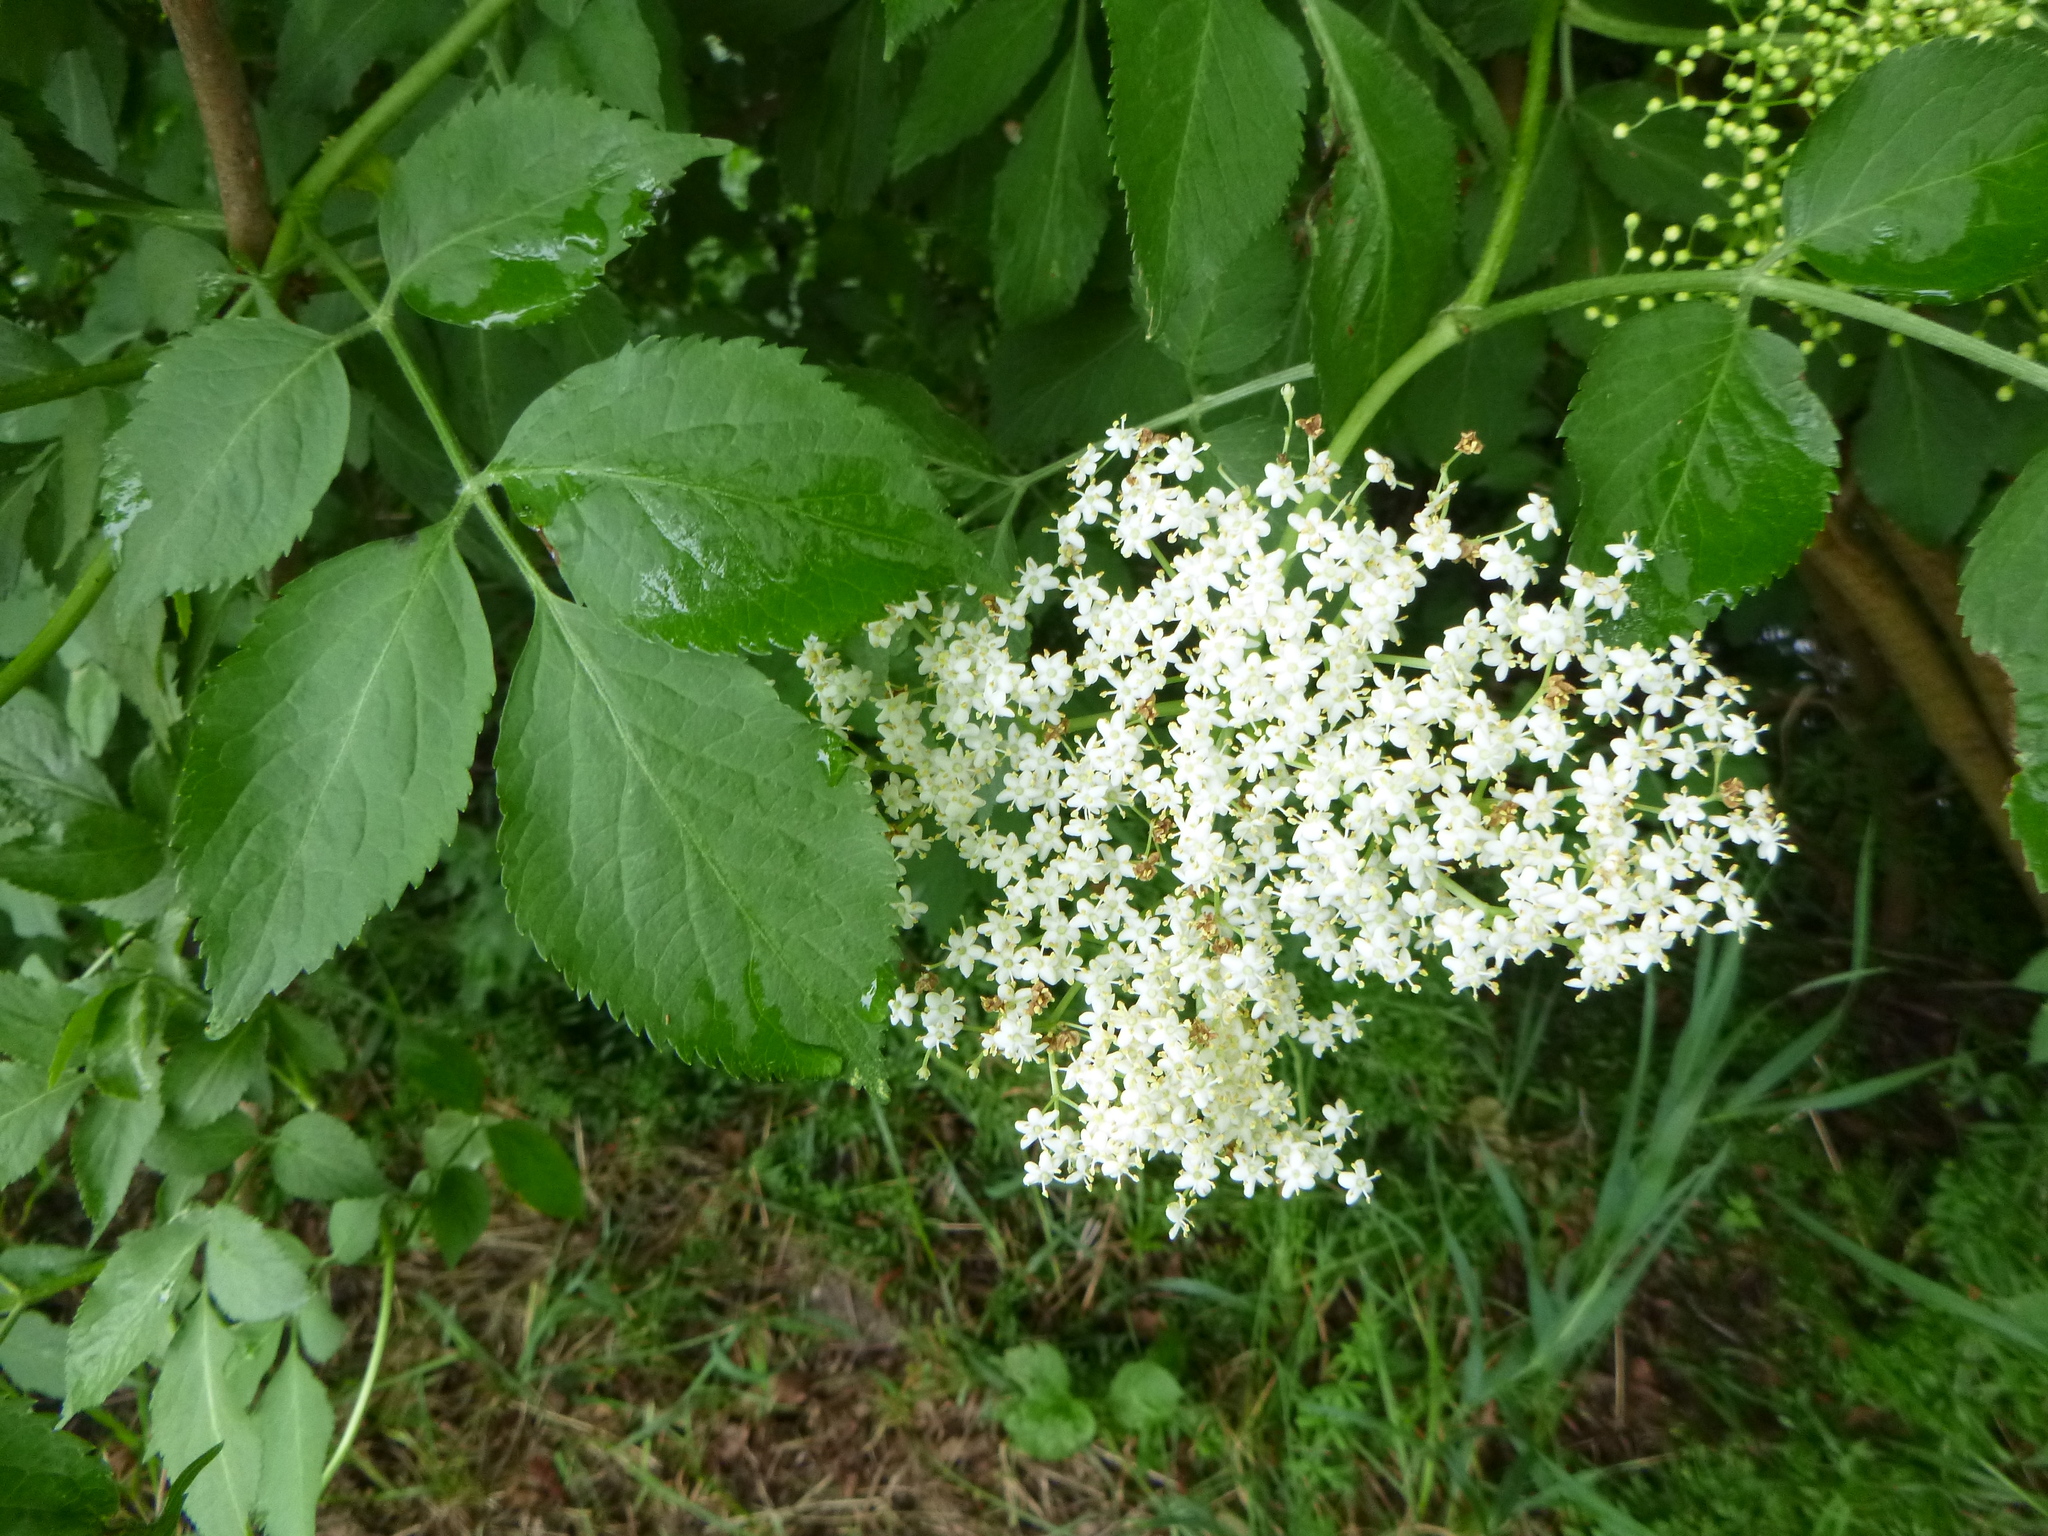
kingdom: Plantae
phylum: Tracheophyta
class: Magnoliopsida
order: Dipsacales
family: Viburnaceae
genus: Sambucus
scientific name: Sambucus nigra
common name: Elder
